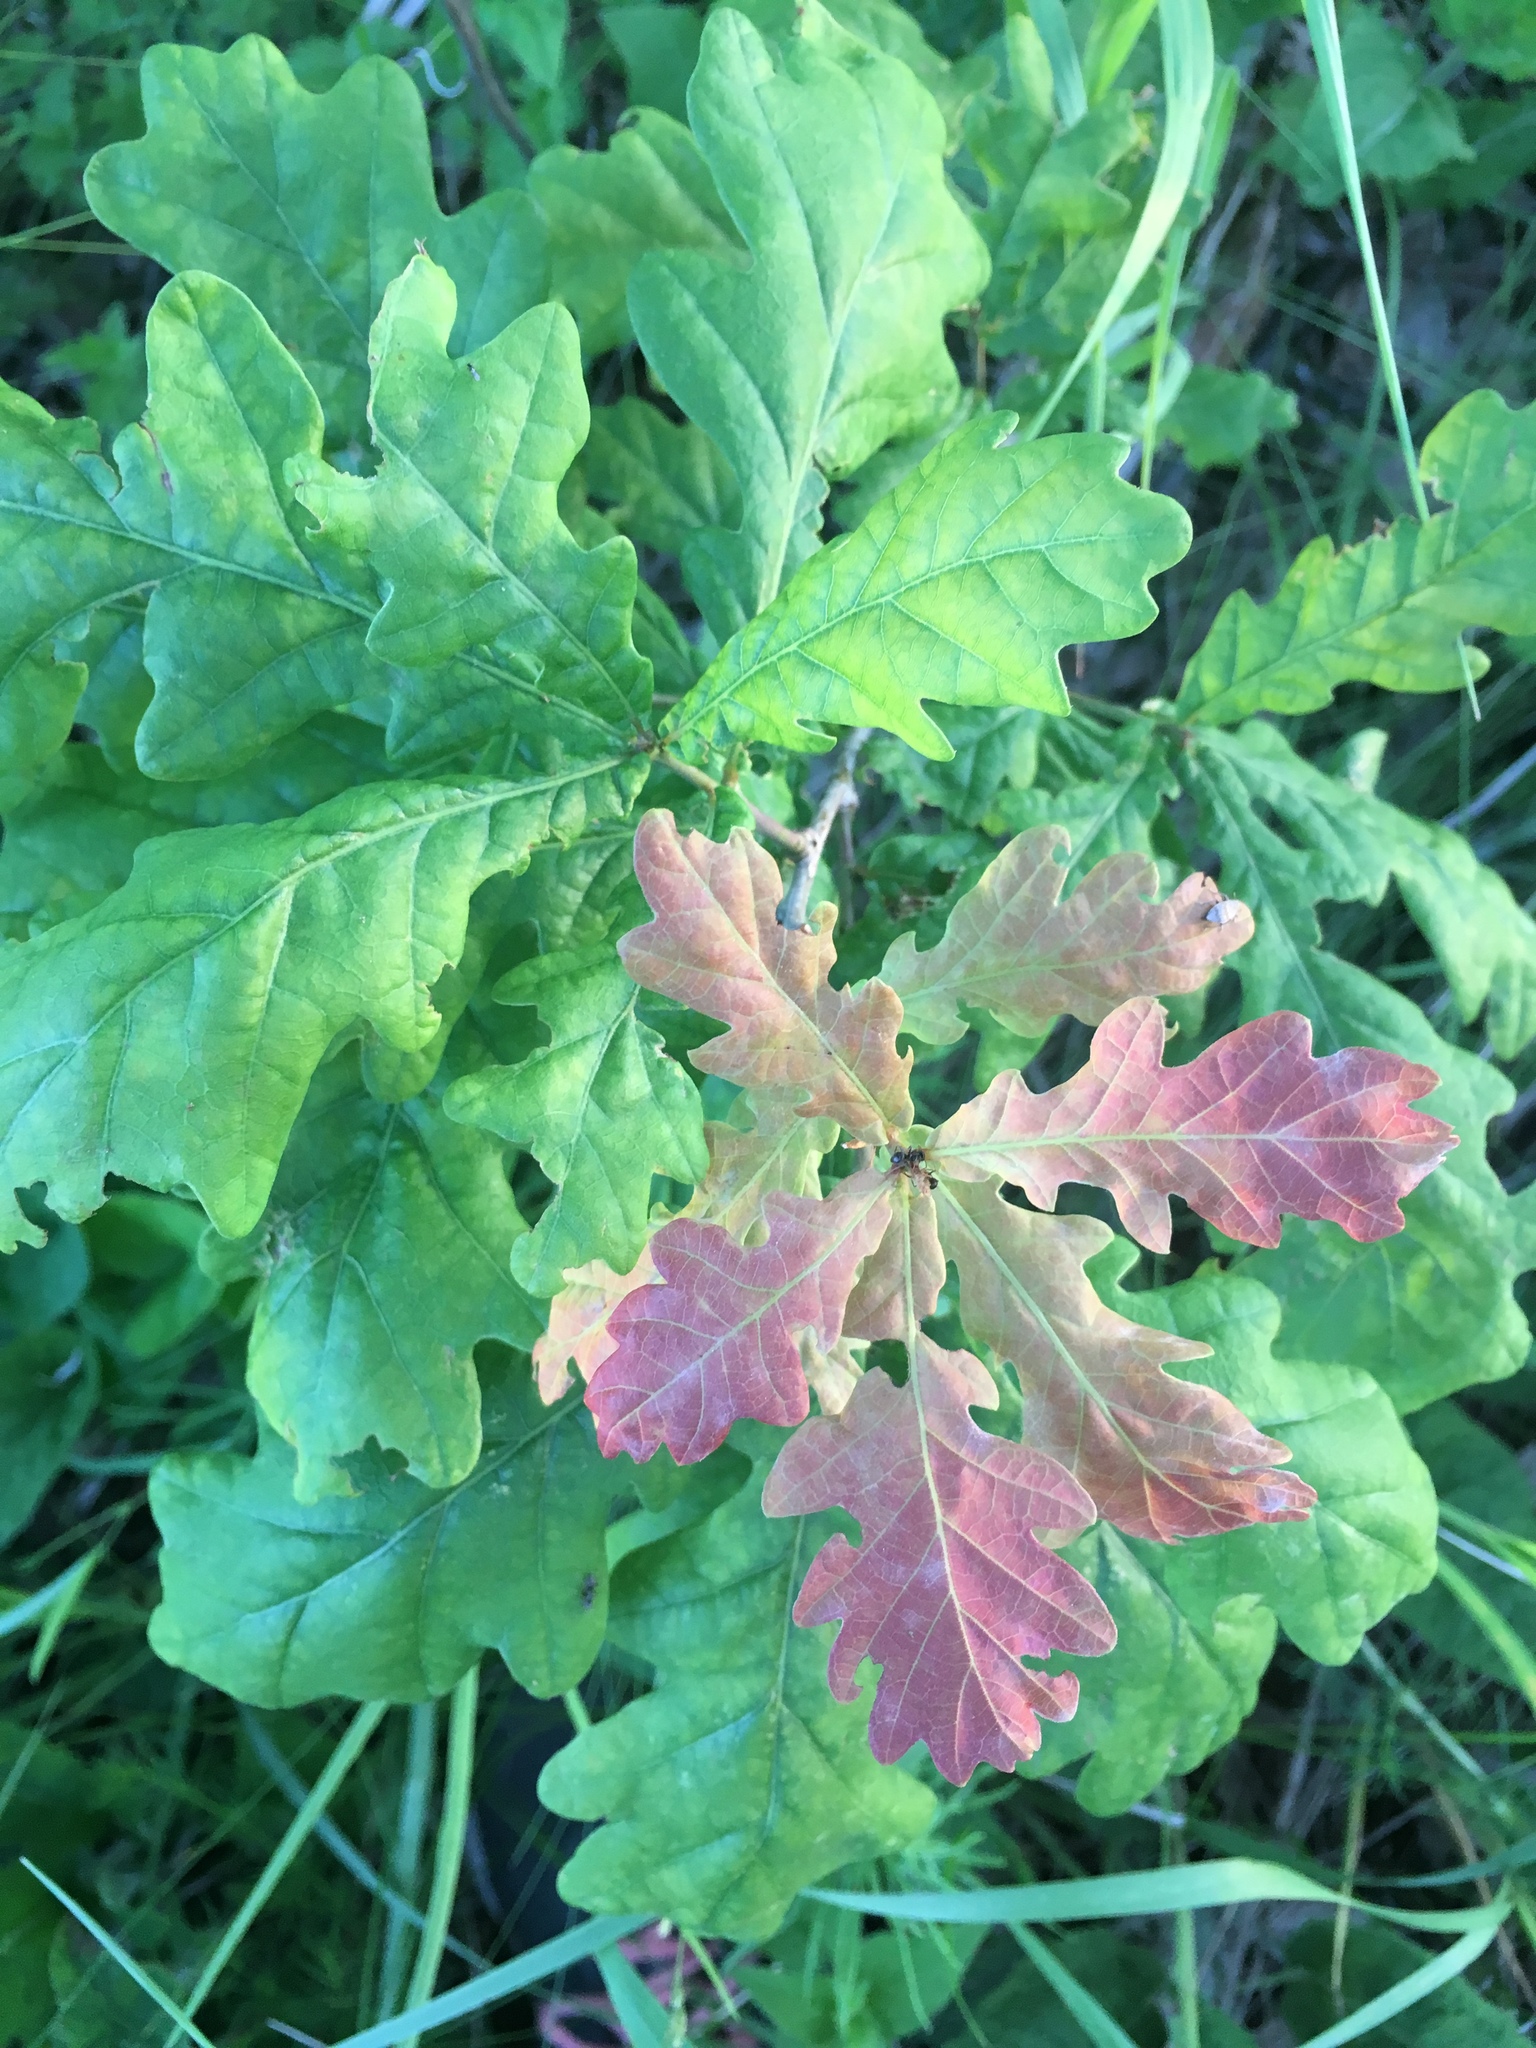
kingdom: Plantae
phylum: Tracheophyta
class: Magnoliopsida
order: Fagales
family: Fagaceae
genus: Quercus
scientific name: Quercus robur
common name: Pedunculate oak
